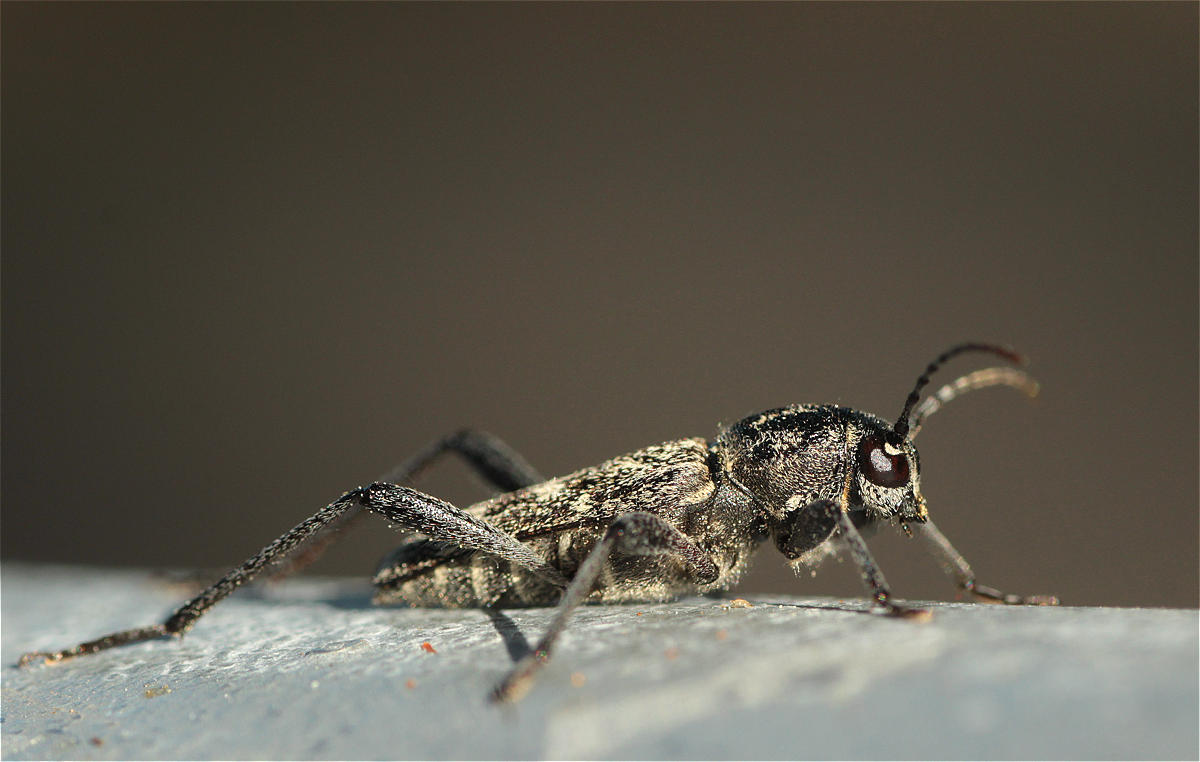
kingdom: Animalia
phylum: Arthropoda
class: Insecta
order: Coleoptera
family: Cerambycidae
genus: Xylotrechus
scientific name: Xylotrechus rusticus
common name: Grey tiger long-horned beetle
